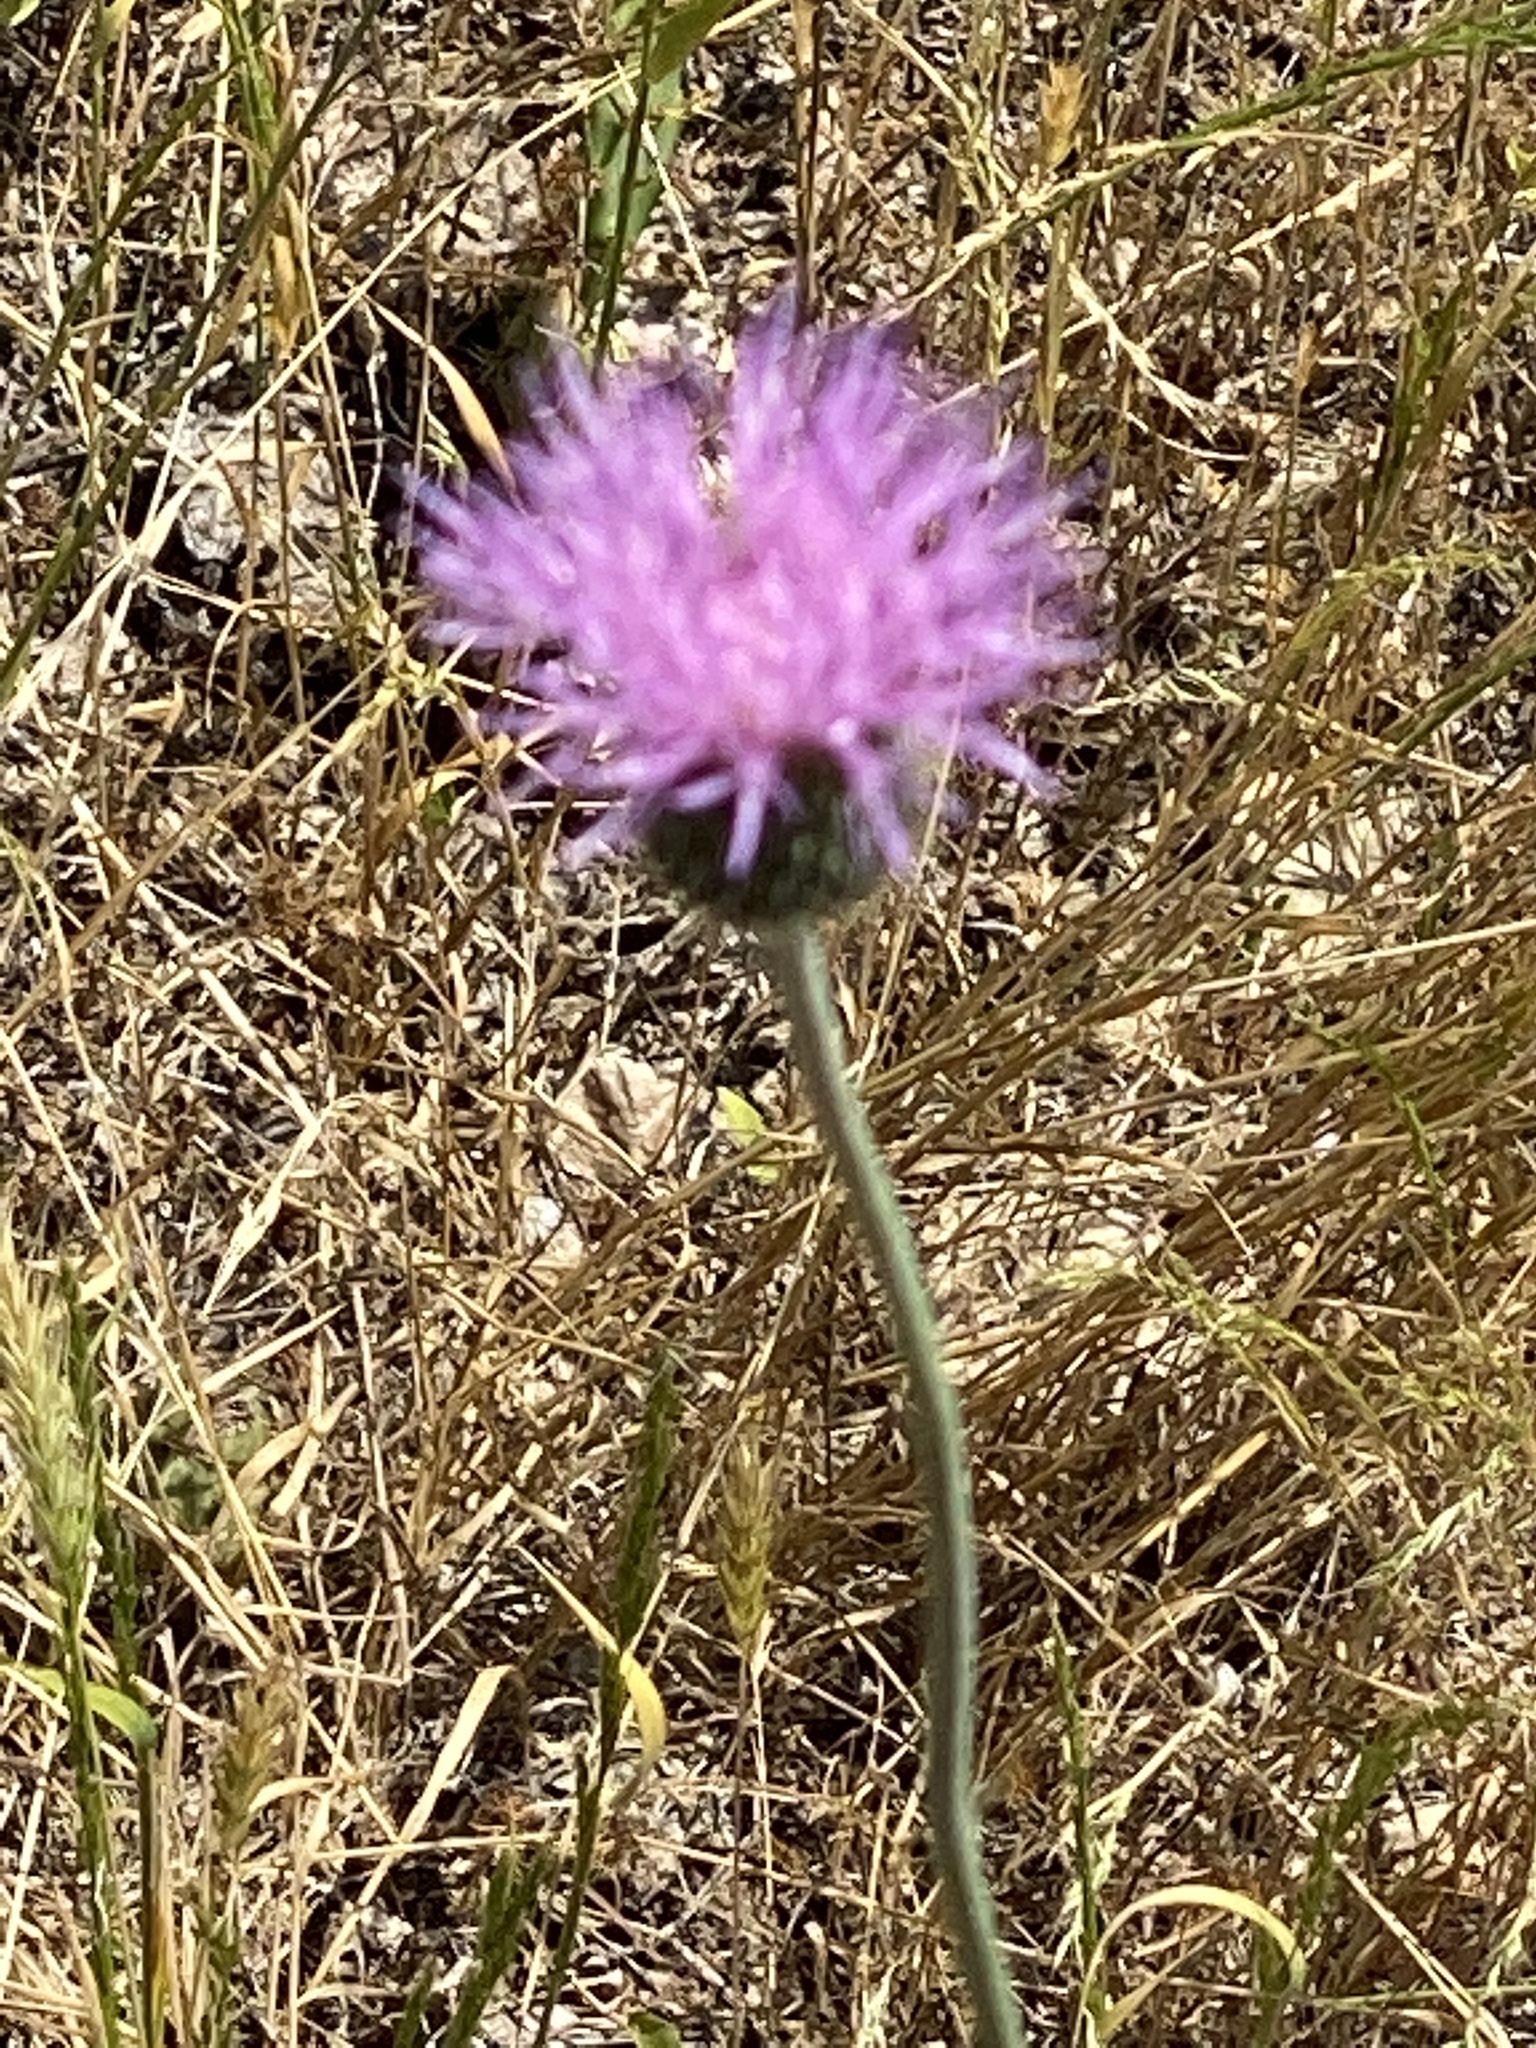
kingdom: Plantae
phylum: Tracheophyta
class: Magnoliopsida
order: Asterales
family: Asteraceae
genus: Cirsium
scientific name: Cirsium texanum
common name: Texas purple thistle
